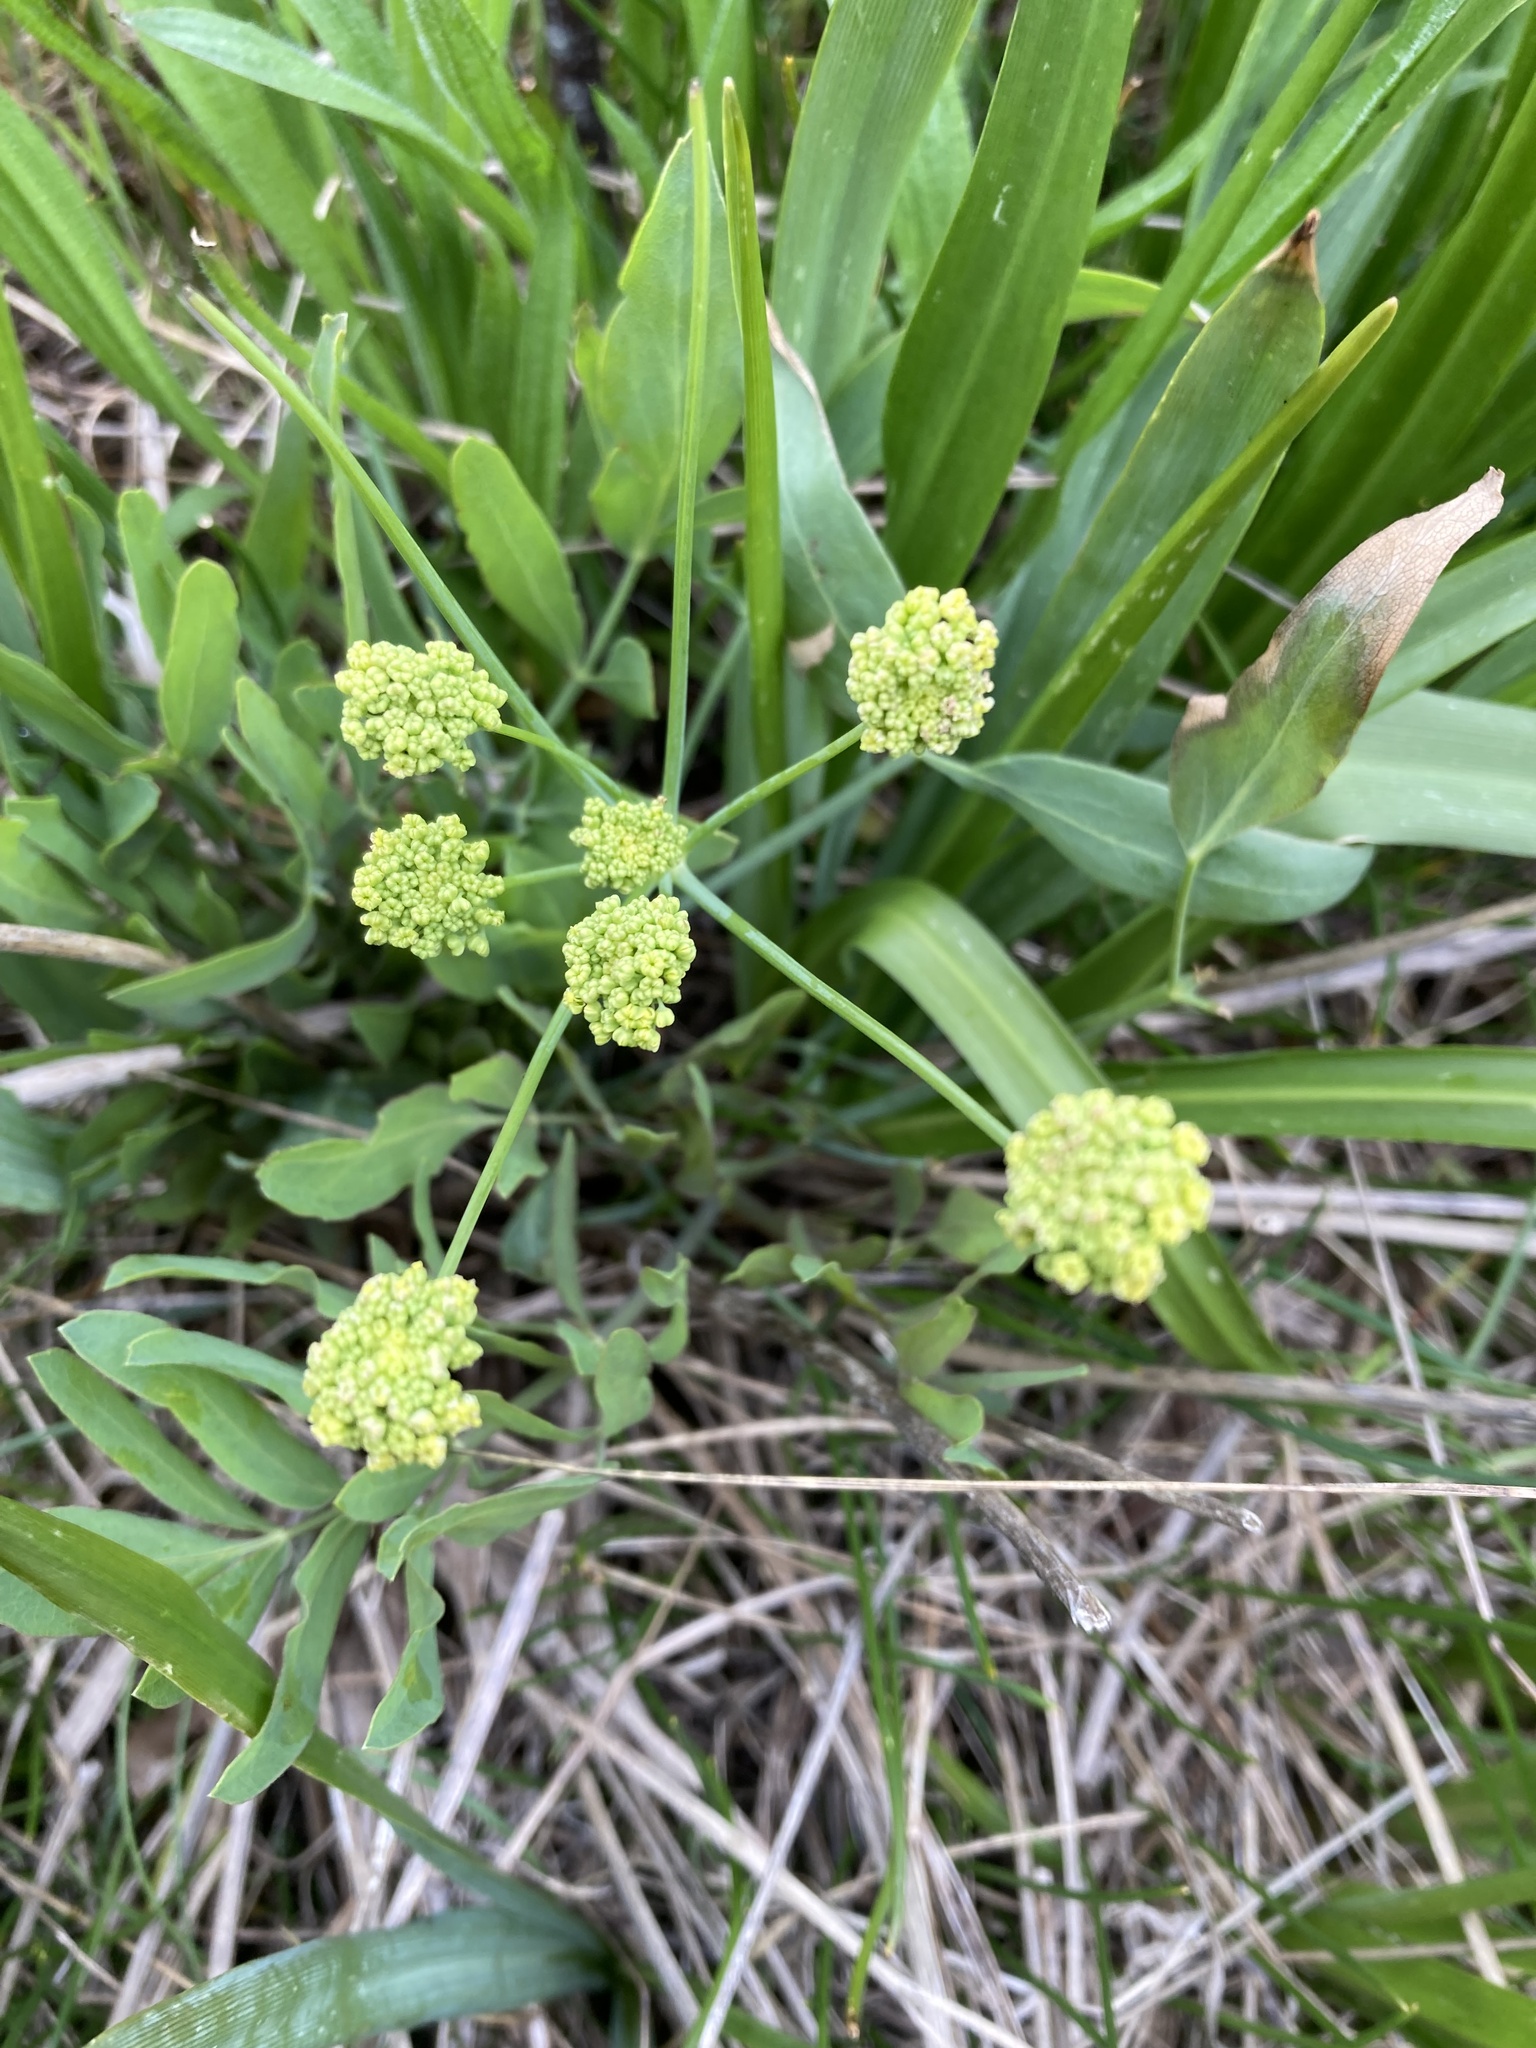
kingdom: Plantae
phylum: Tracheophyta
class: Magnoliopsida
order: Apiales
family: Apiaceae
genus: Lomatium
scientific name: Lomatium nudicaule
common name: Pestle lomatium
